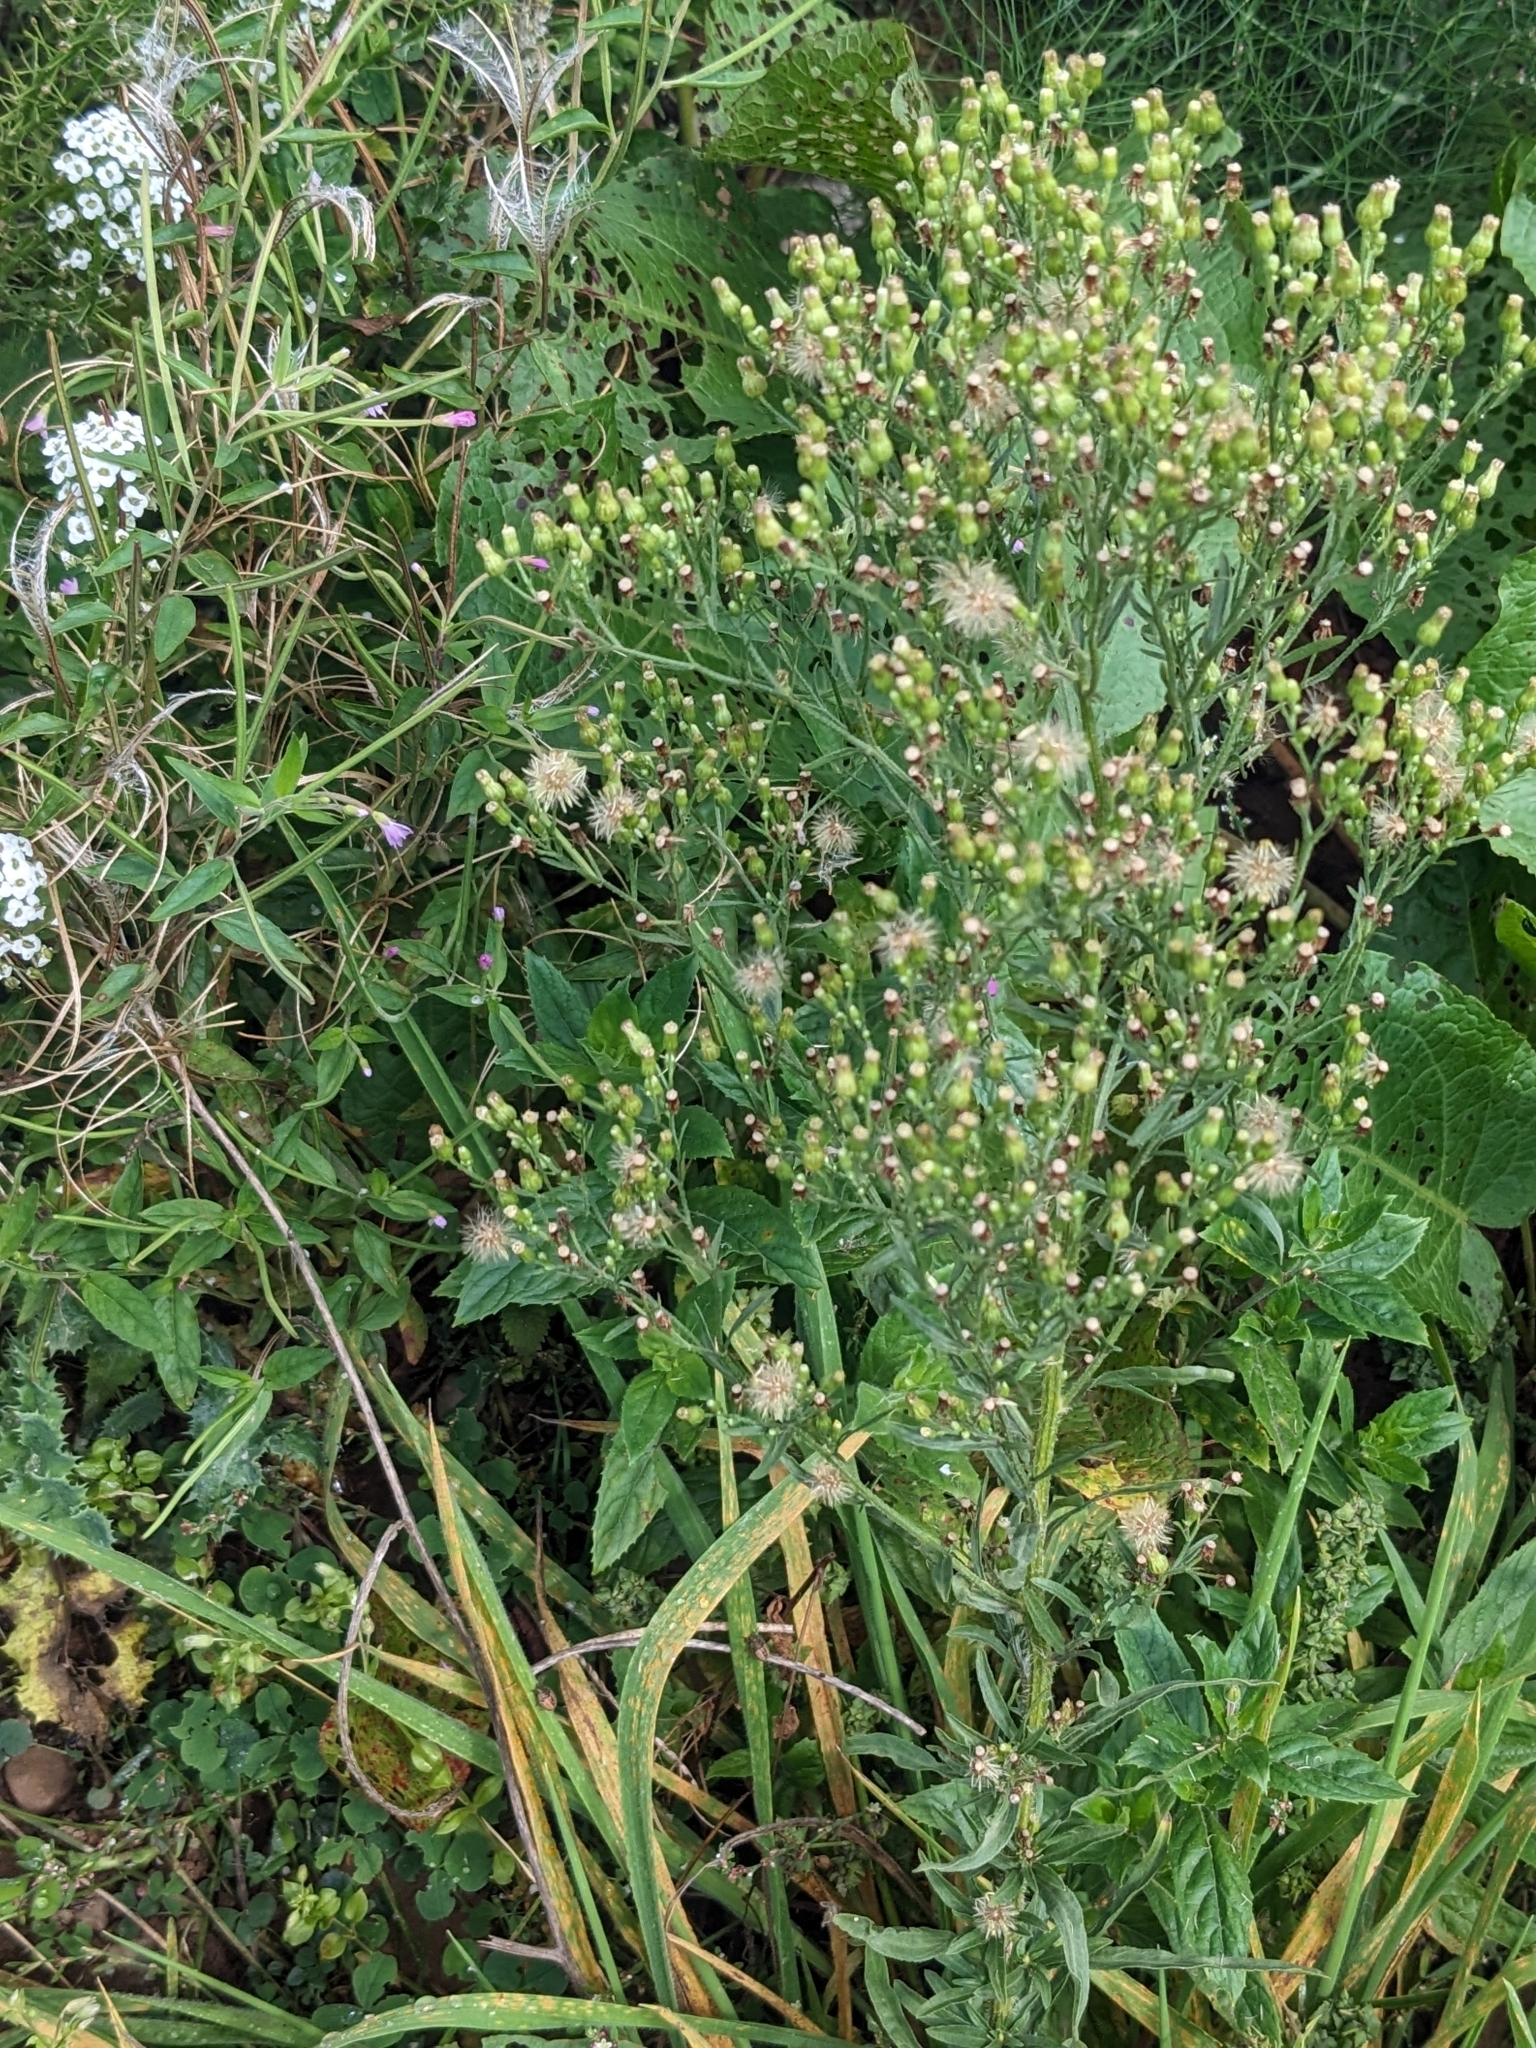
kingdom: Plantae
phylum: Tracheophyta
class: Magnoliopsida
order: Asterales
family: Asteraceae
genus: Erigeron
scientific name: Erigeron canadensis
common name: Canadian fleabane
